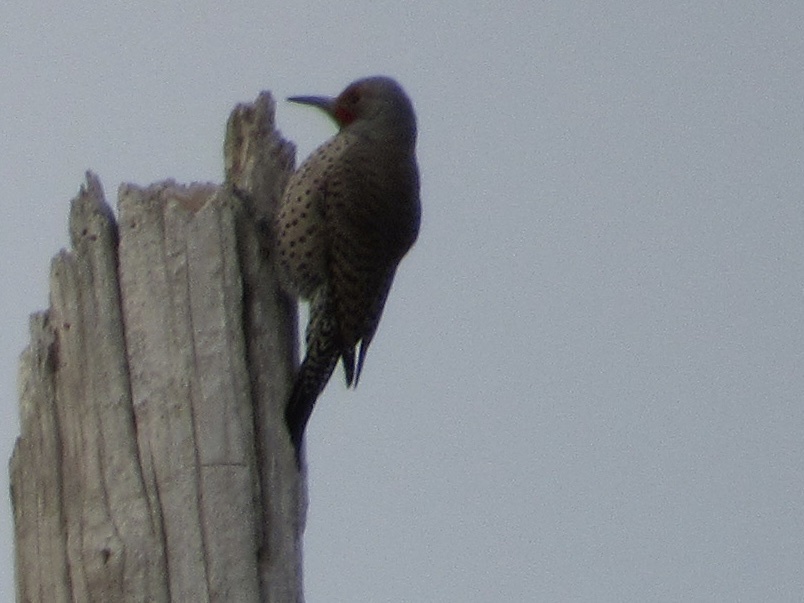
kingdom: Animalia
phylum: Chordata
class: Aves
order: Piciformes
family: Picidae
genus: Colaptes
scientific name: Colaptes auratus
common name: Northern flicker
